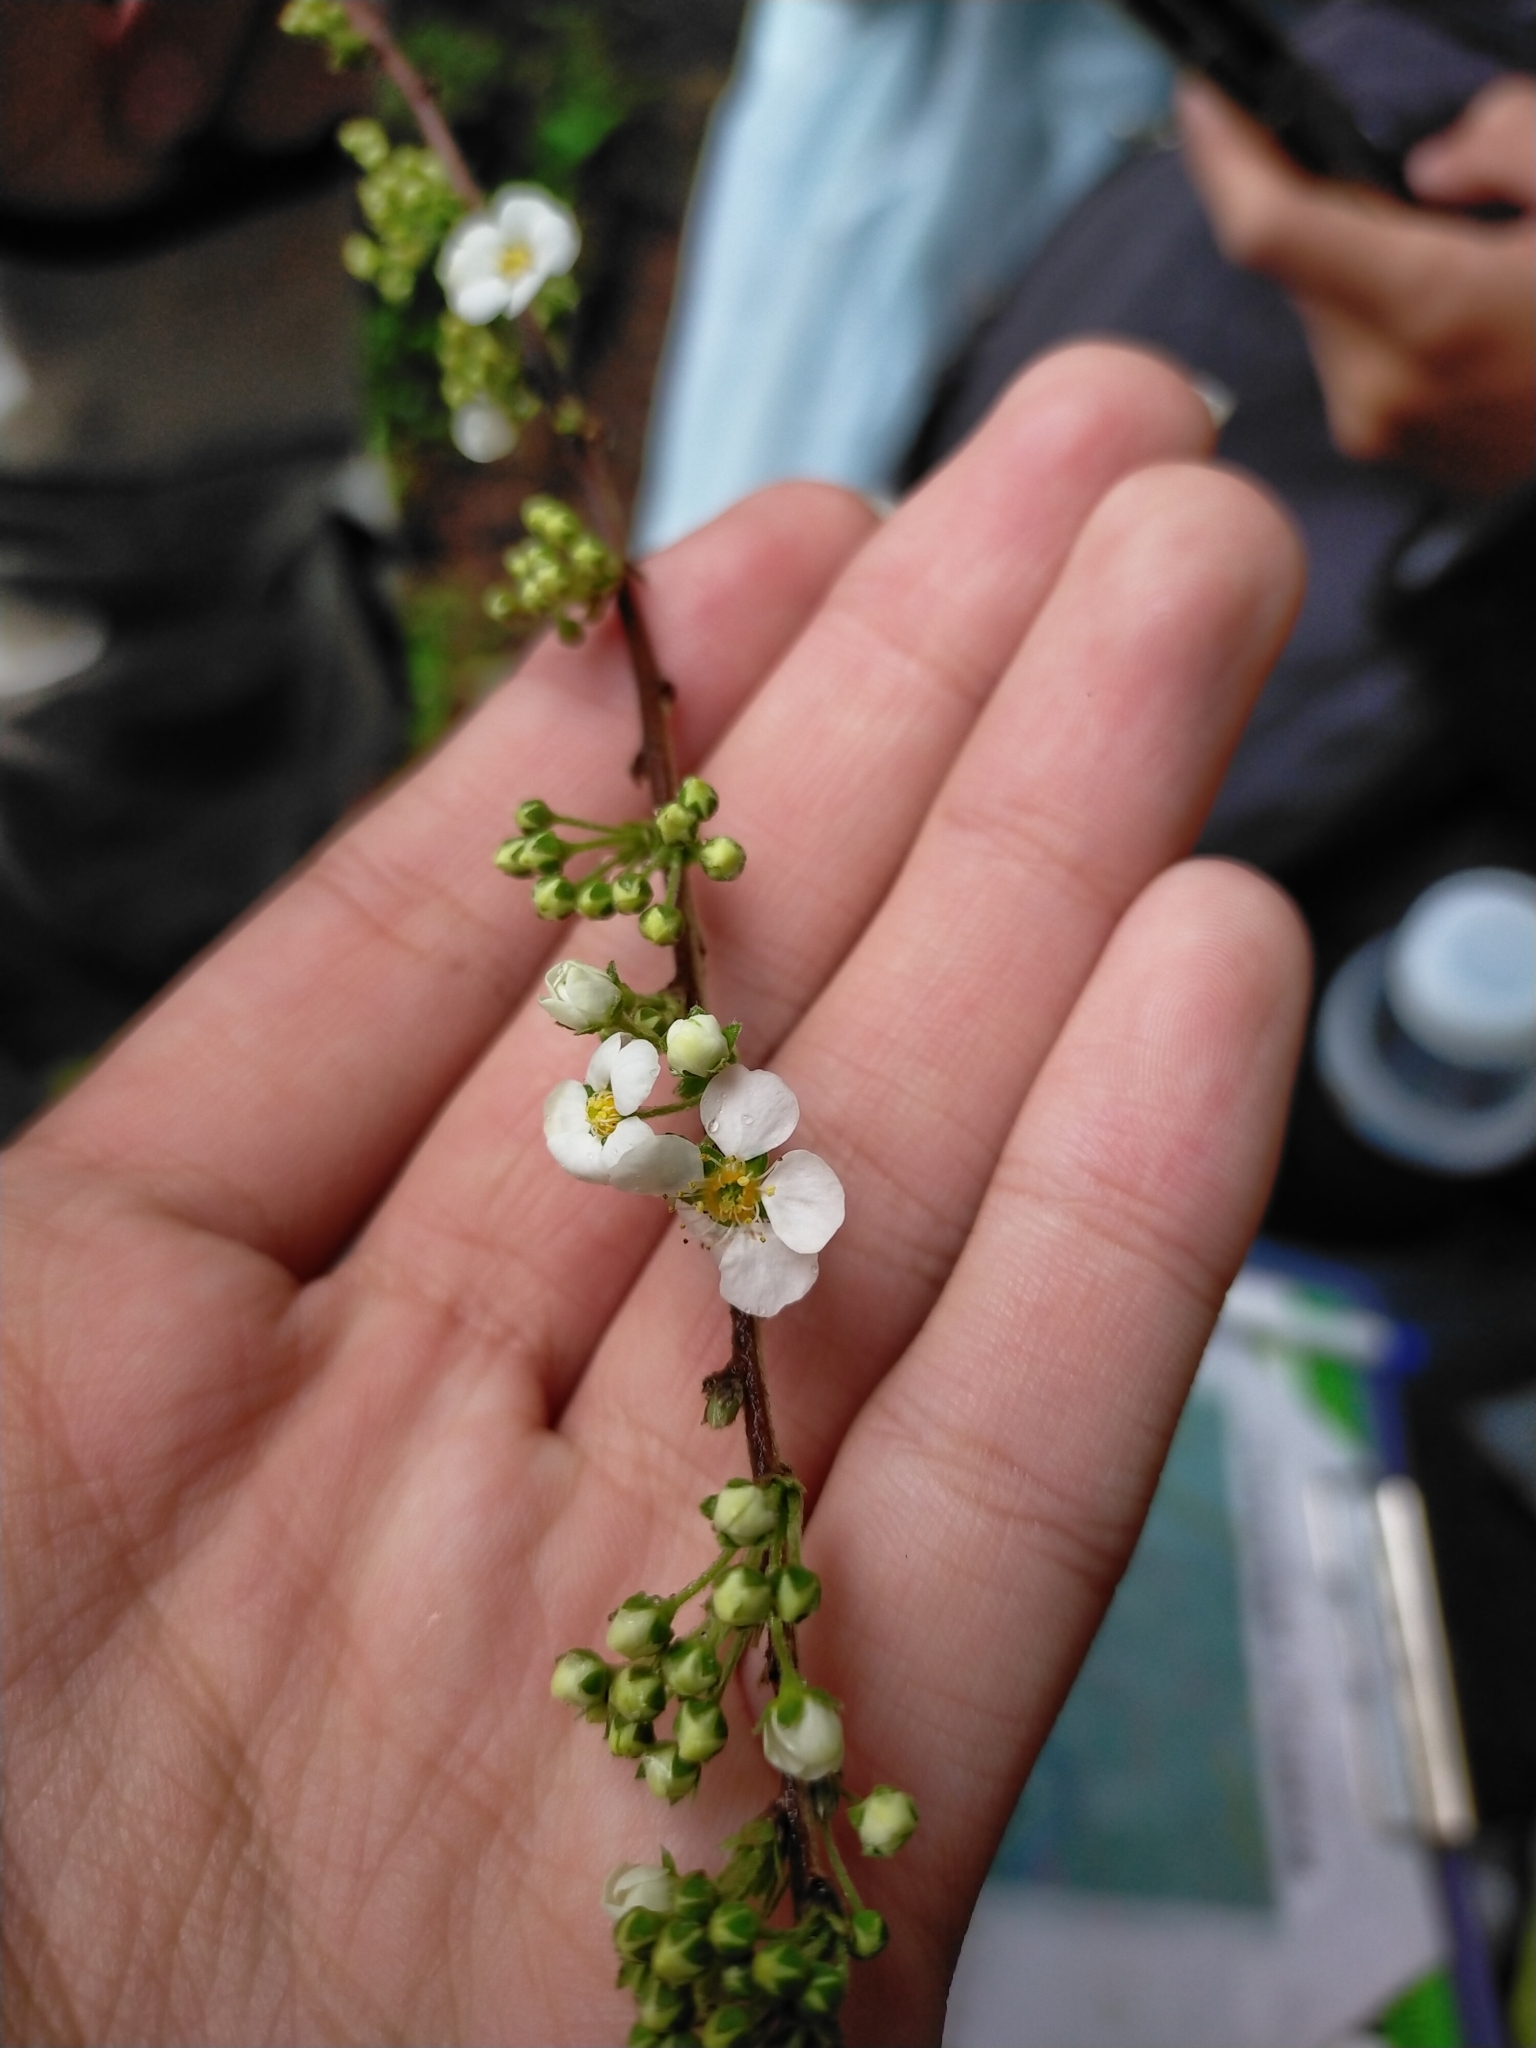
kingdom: Plantae
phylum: Tracheophyta
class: Magnoliopsida
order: Rosales
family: Rosaceae
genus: Spiraea
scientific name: Spiraea prunifolia
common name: Bridal-wreath spiraea
